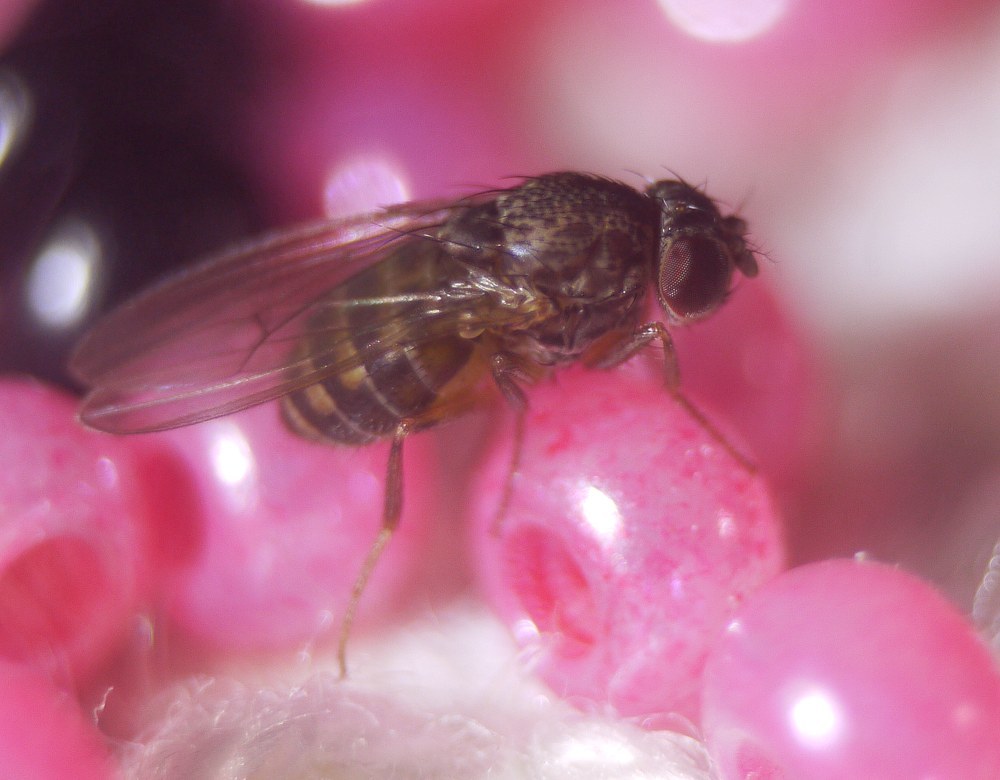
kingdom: Animalia
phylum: Arthropoda
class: Insecta
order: Diptera
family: Drosophilidae
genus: Drosophila
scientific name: Drosophila hydei
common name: Pomace fly
